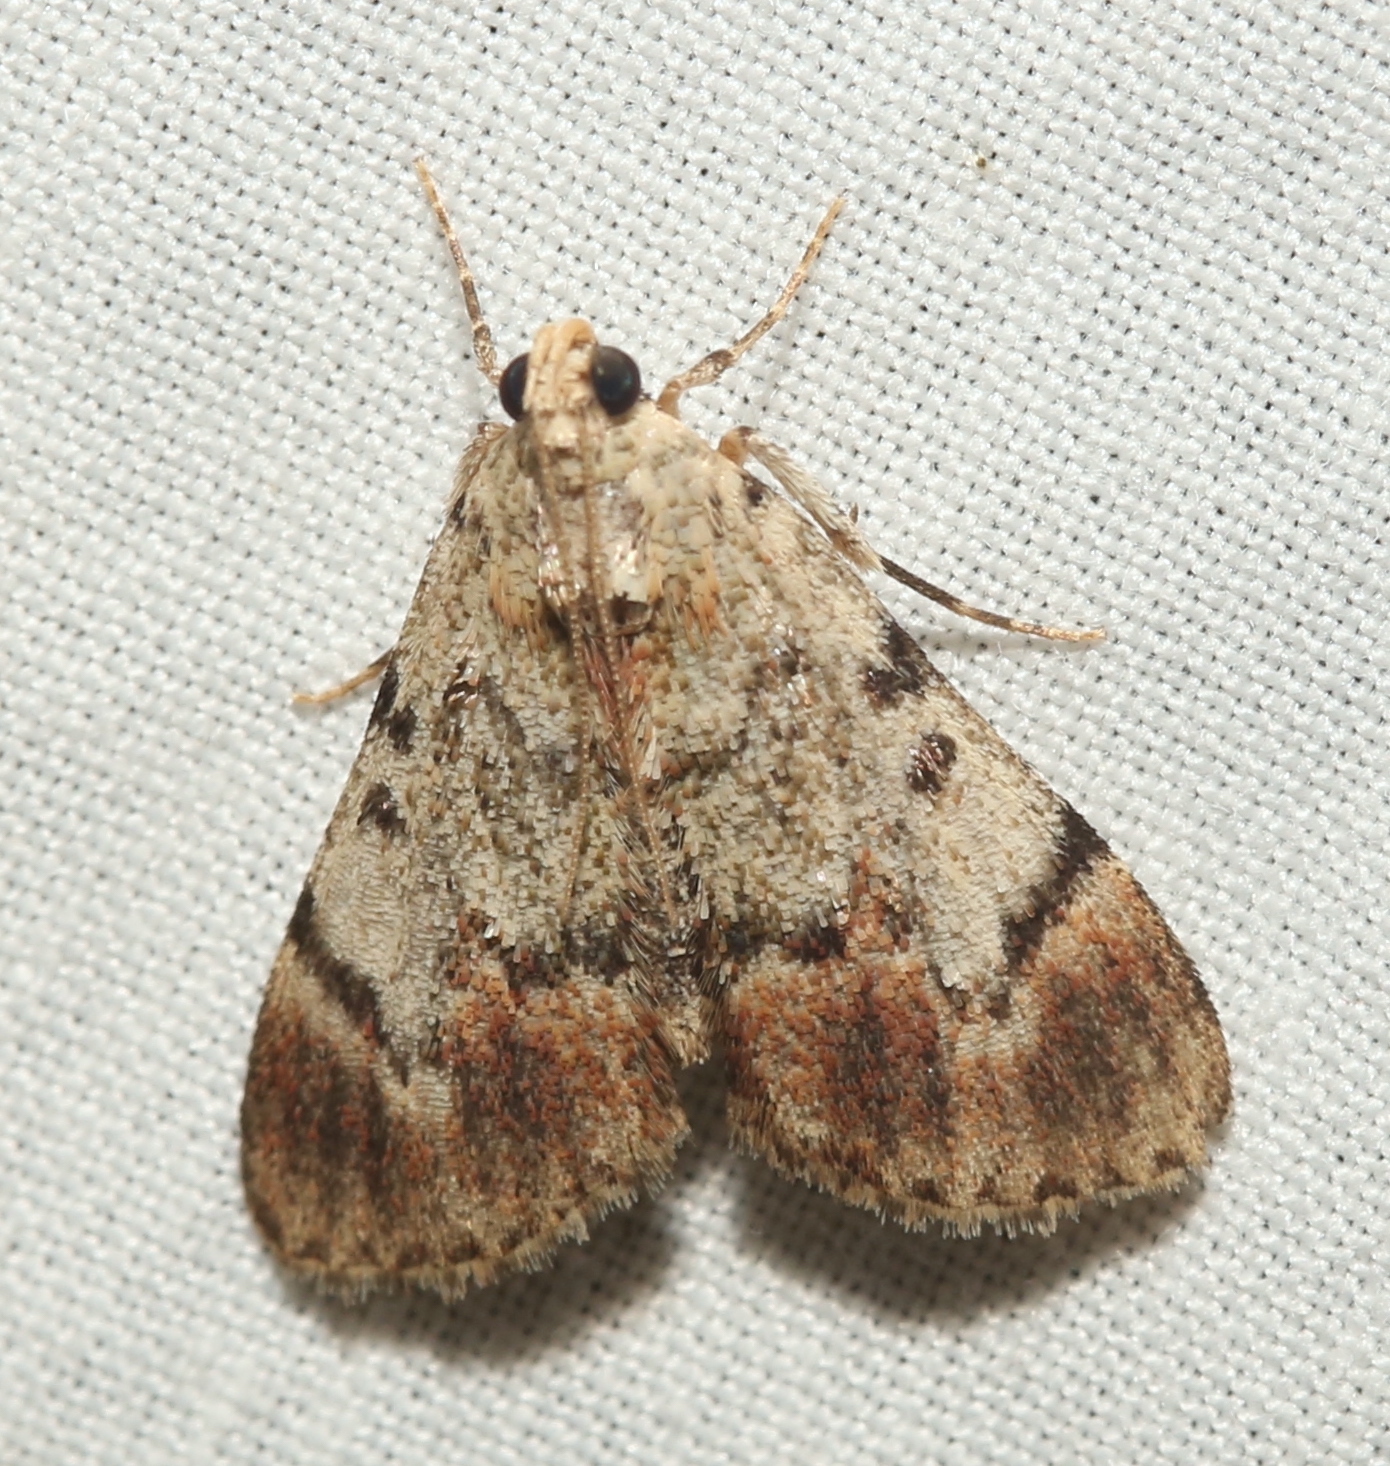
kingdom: Animalia
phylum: Arthropoda
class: Insecta
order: Lepidoptera
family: Pyralidae
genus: Epipaschia
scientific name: Epipaschia superatalis
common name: Dimorphic macalla moth
